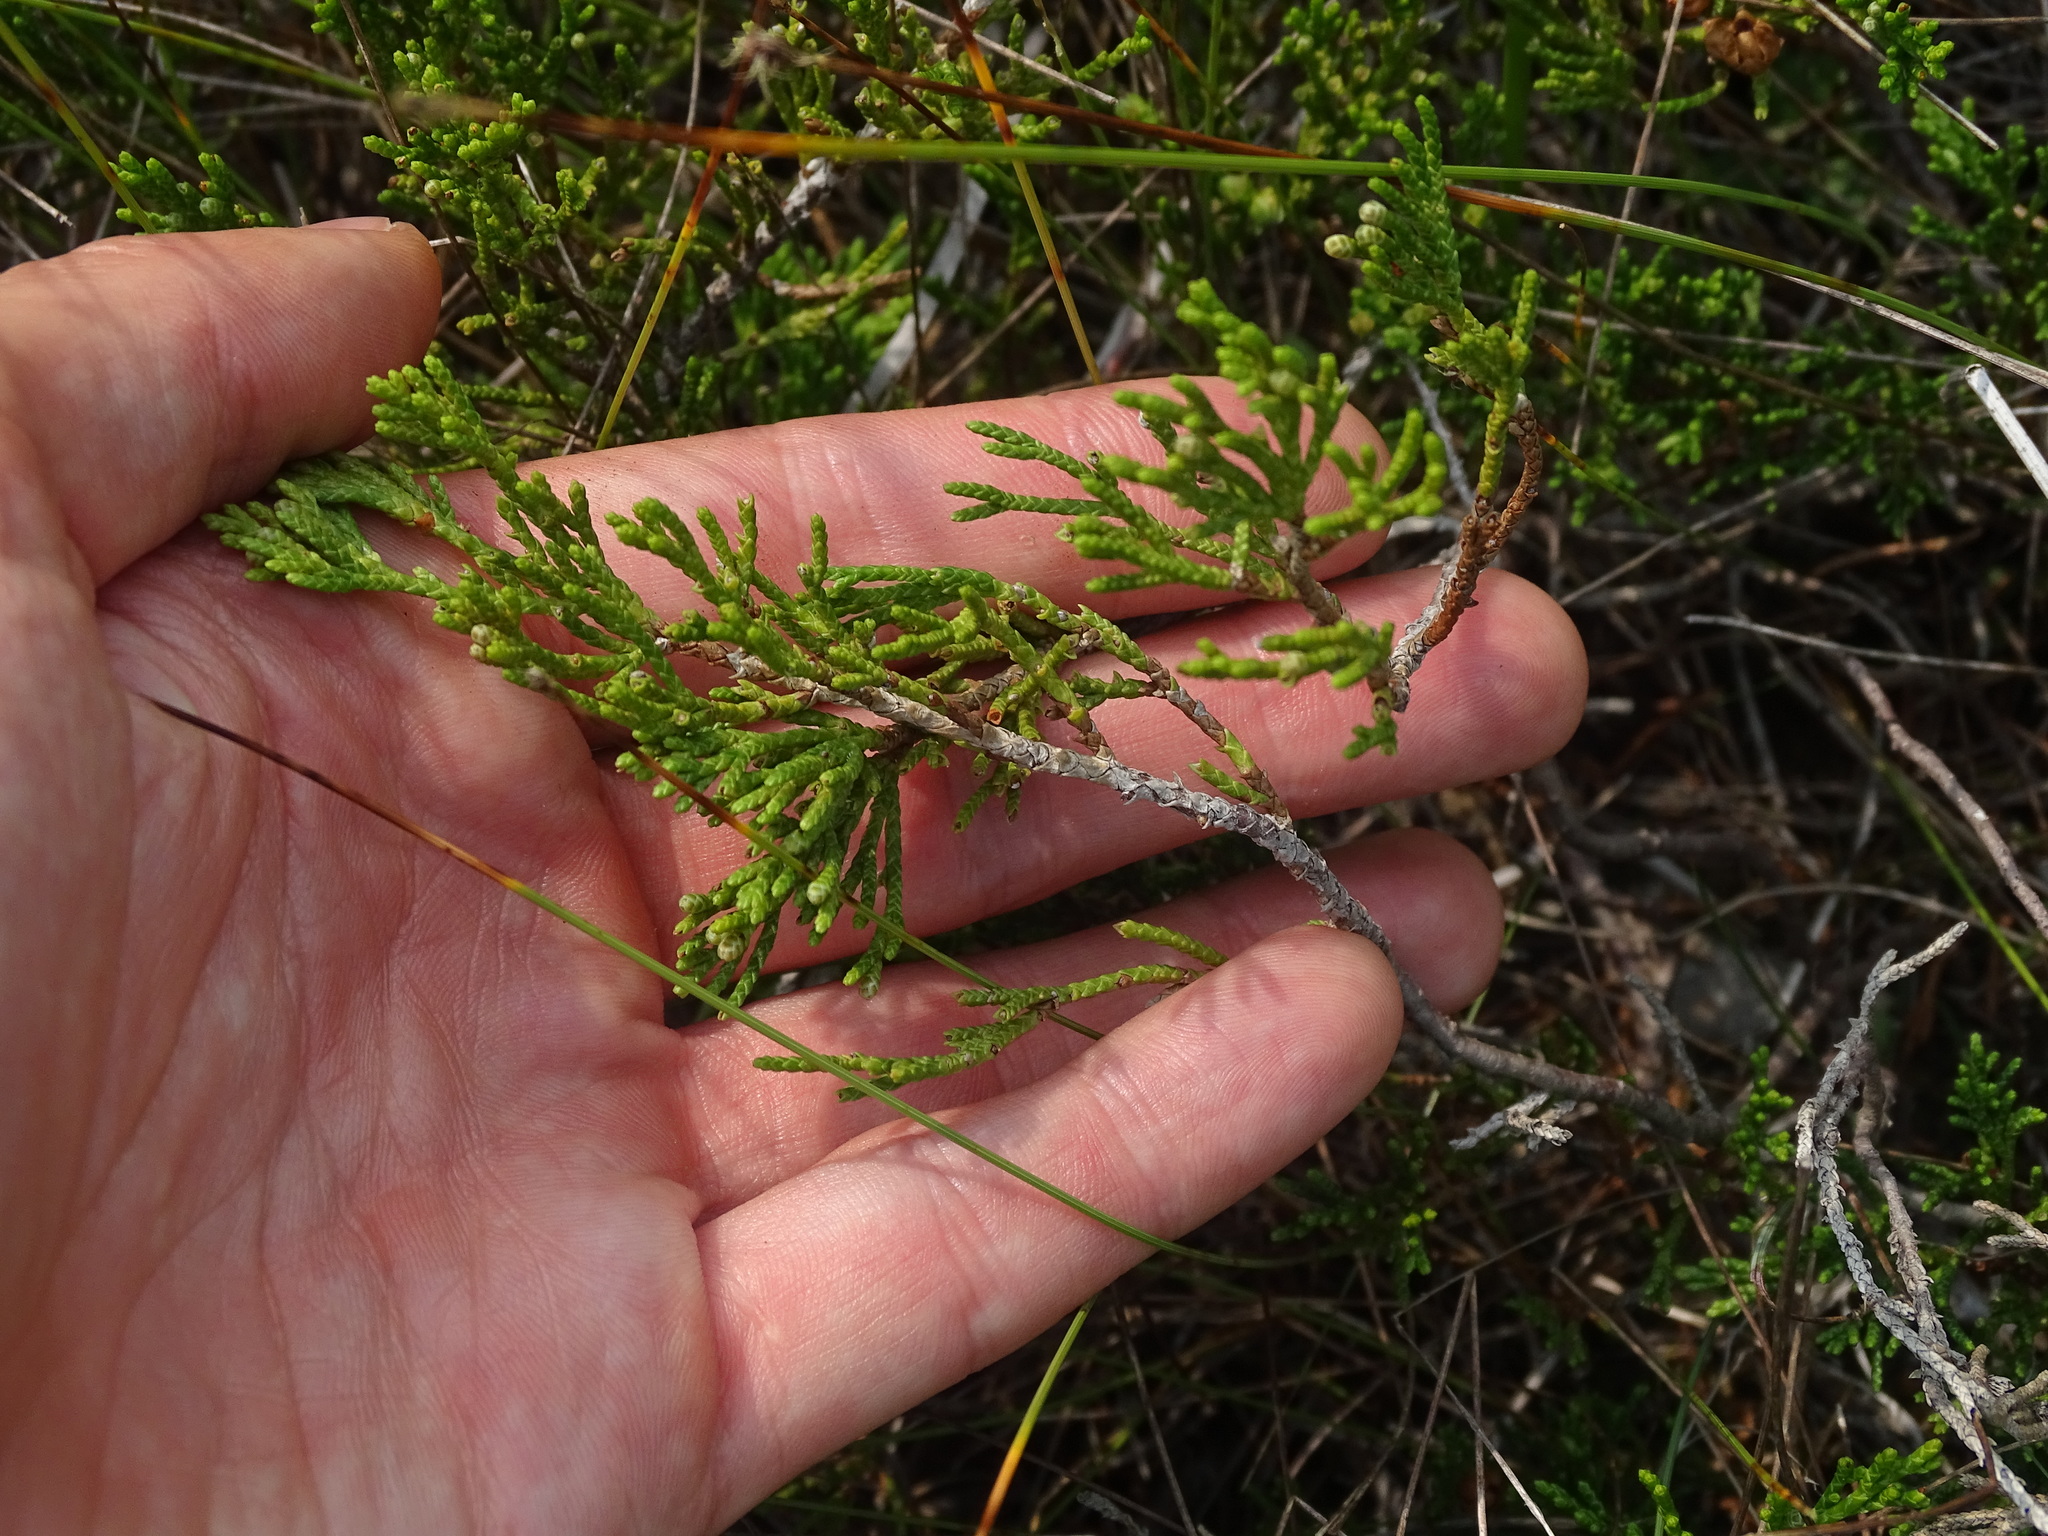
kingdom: Plantae
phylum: Tracheophyta
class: Pinopsida
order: Pinales
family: Cupressaceae
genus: Juniperus
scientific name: Juniperus horizontalis
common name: Creeping juniper
